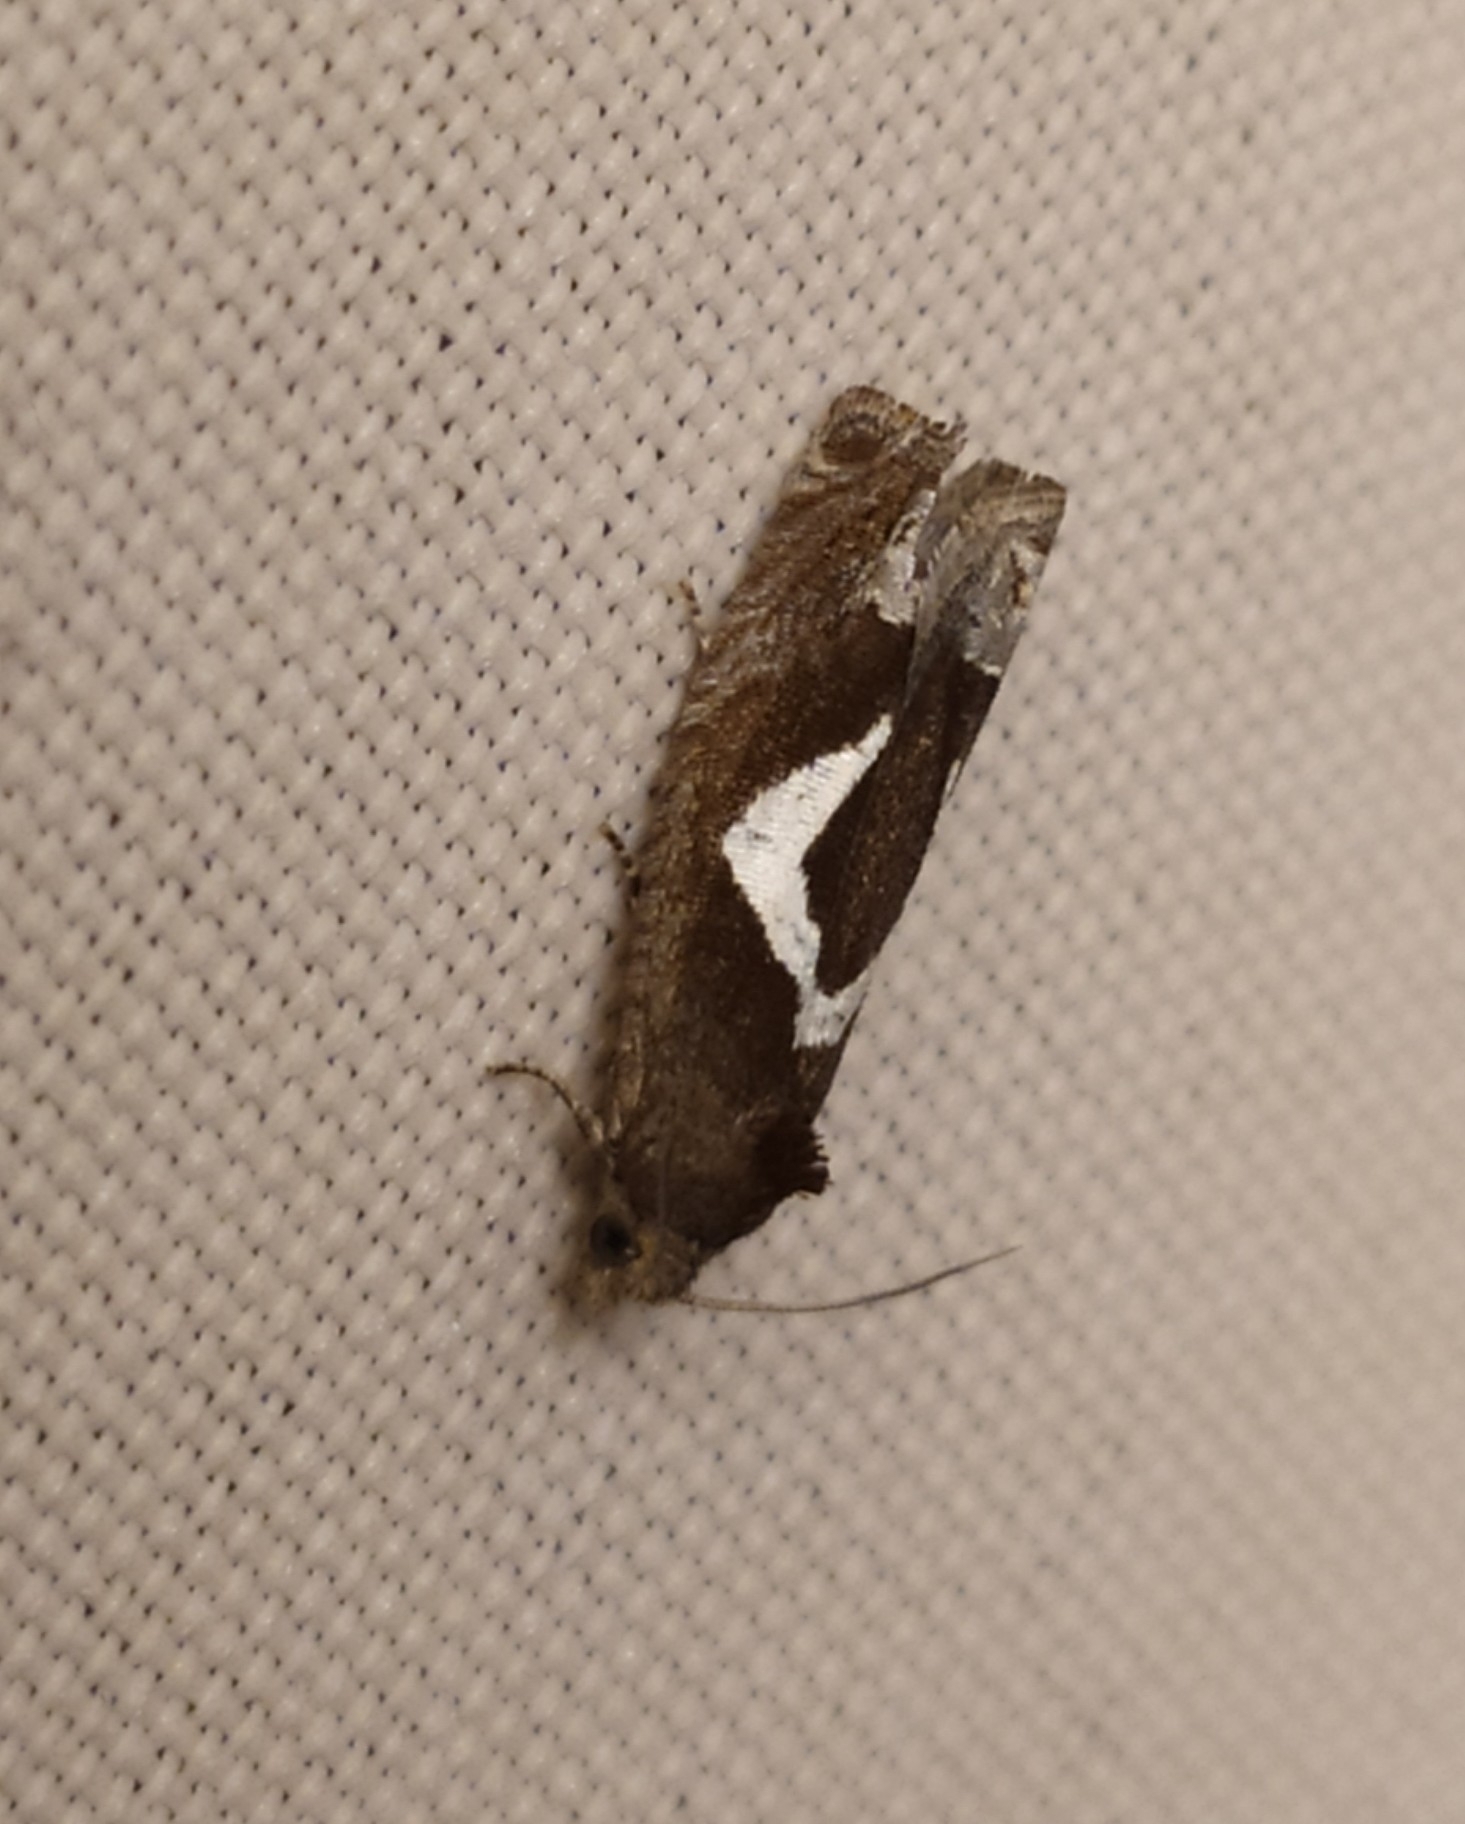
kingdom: Animalia
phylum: Arthropoda
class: Insecta
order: Lepidoptera
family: Tortricidae
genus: Epiblema
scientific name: Epiblema foenella
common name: White-foot bell
